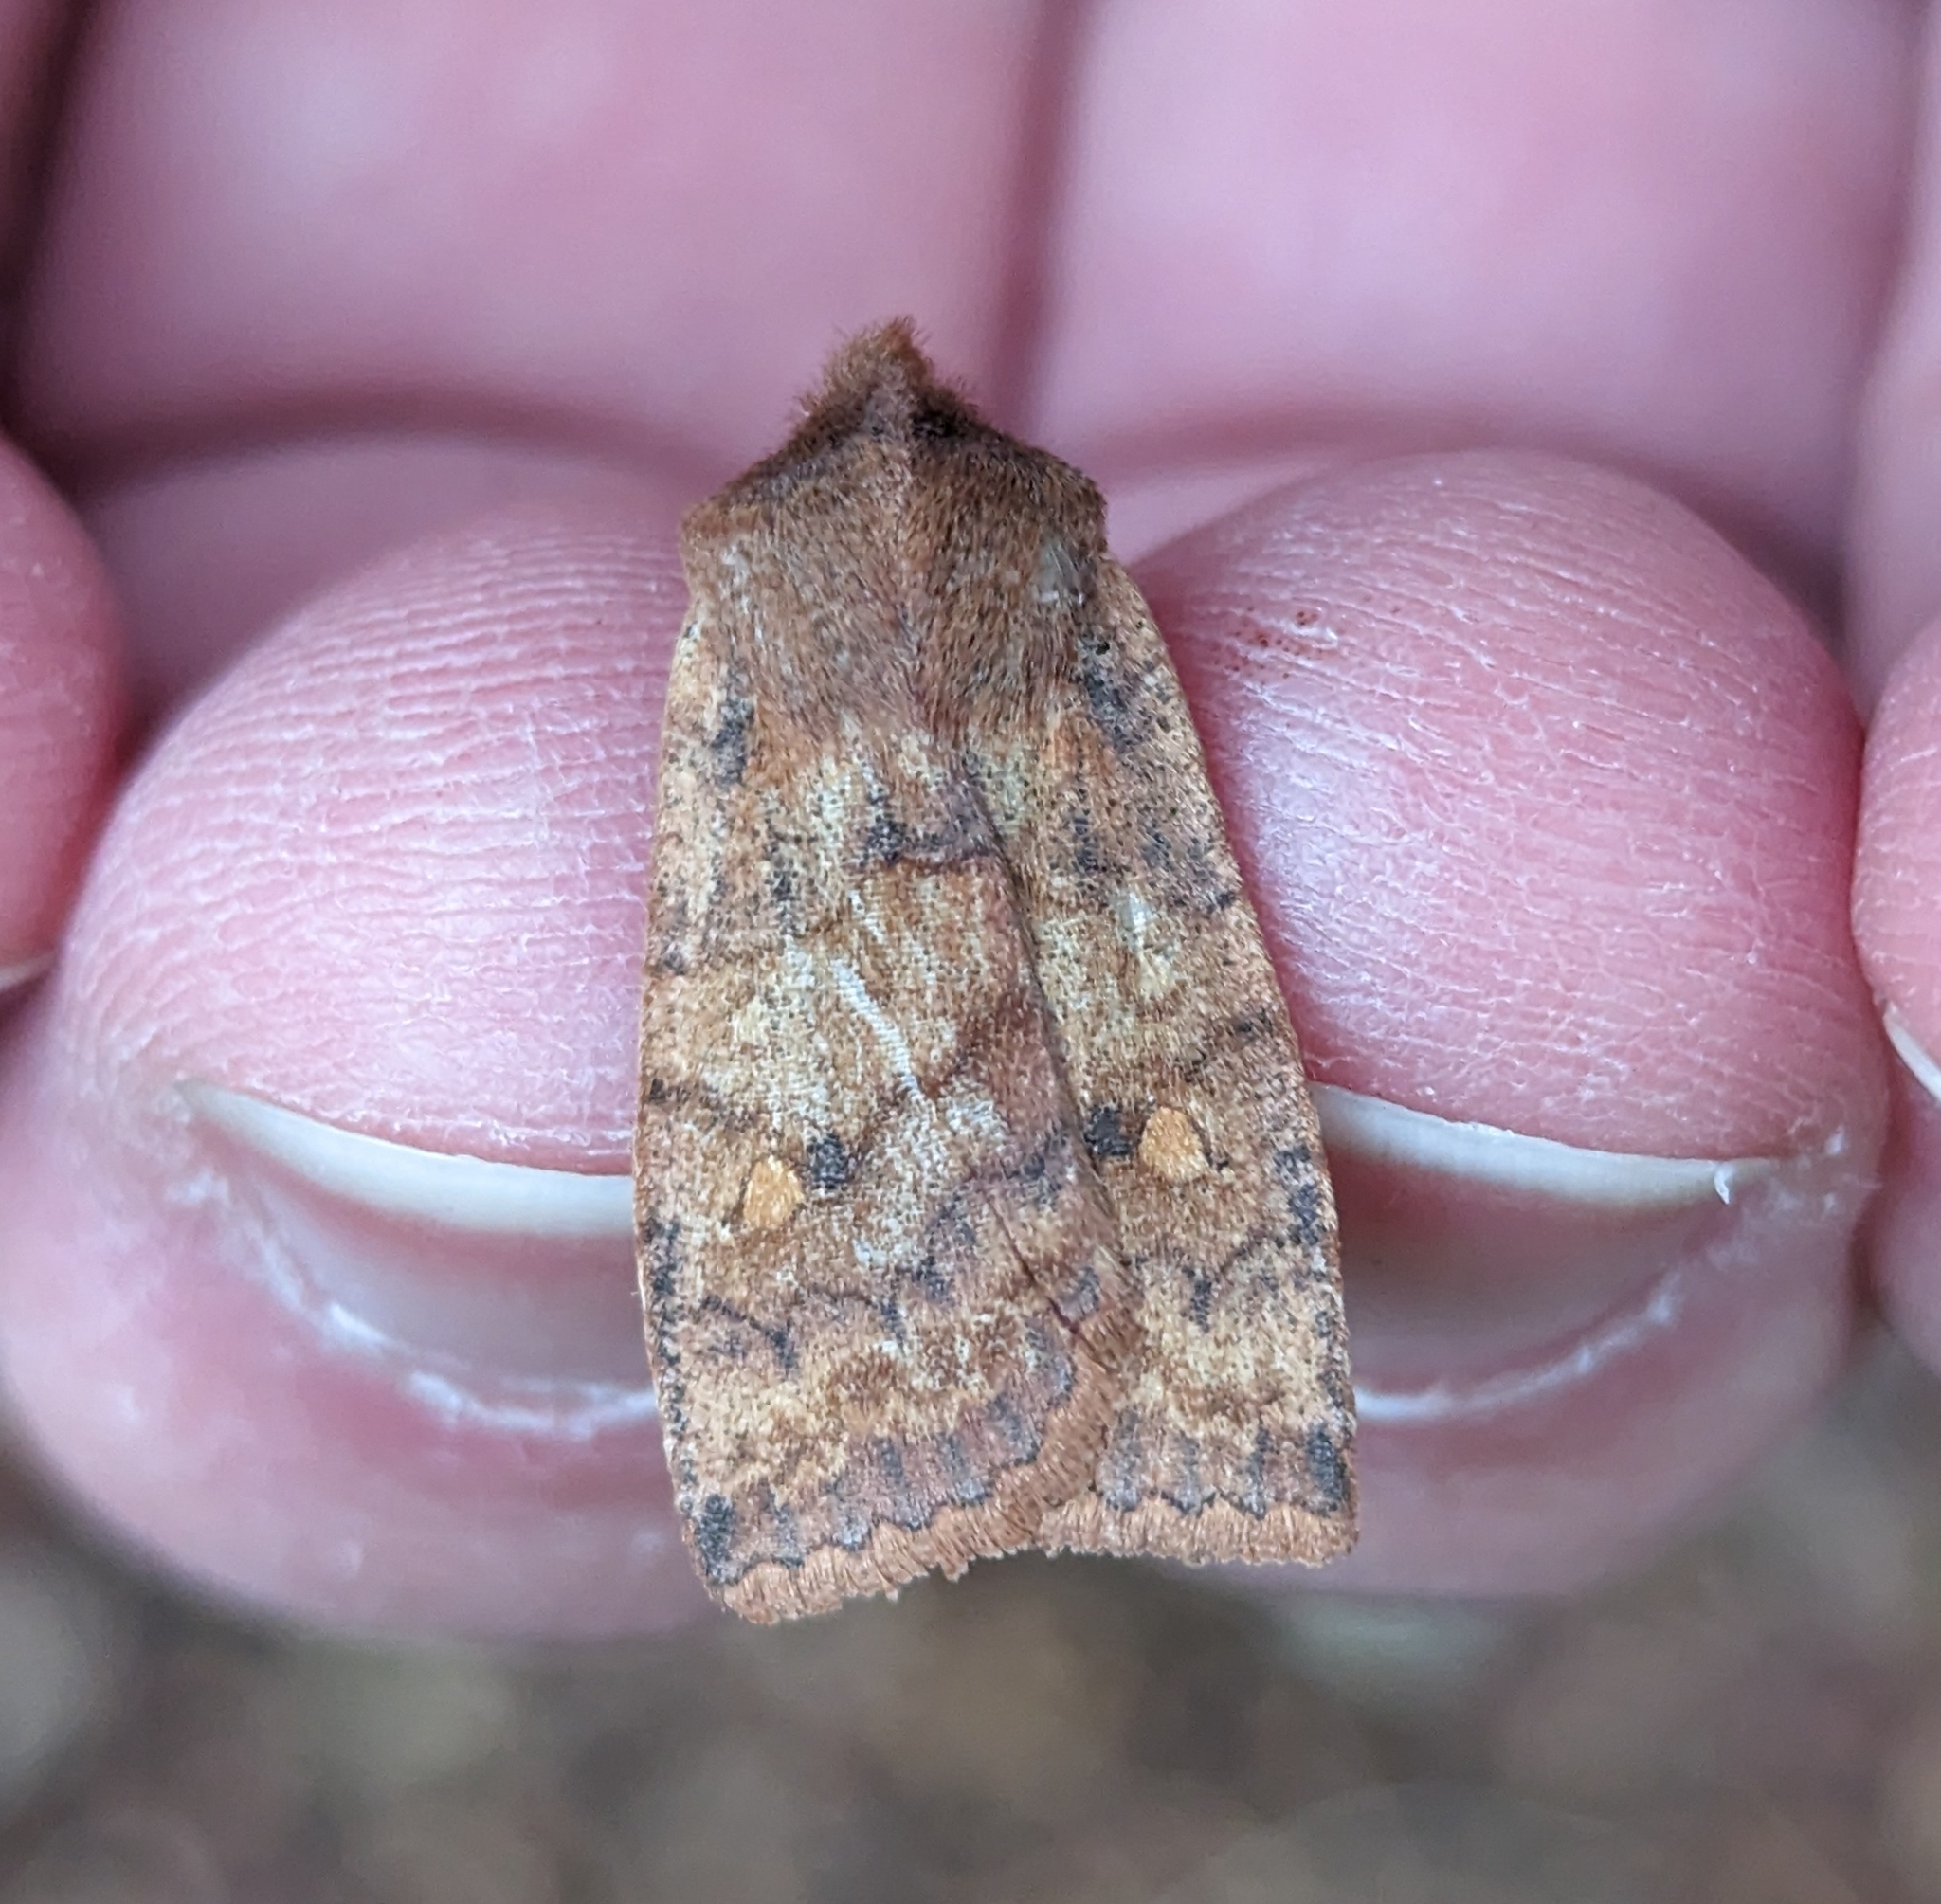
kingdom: Animalia
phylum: Arthropoda
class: Insecta
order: Lepidoptera
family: Noctuidae
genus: Eupsilia
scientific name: Eupsilia tristigmata
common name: Three-spotted sallow
